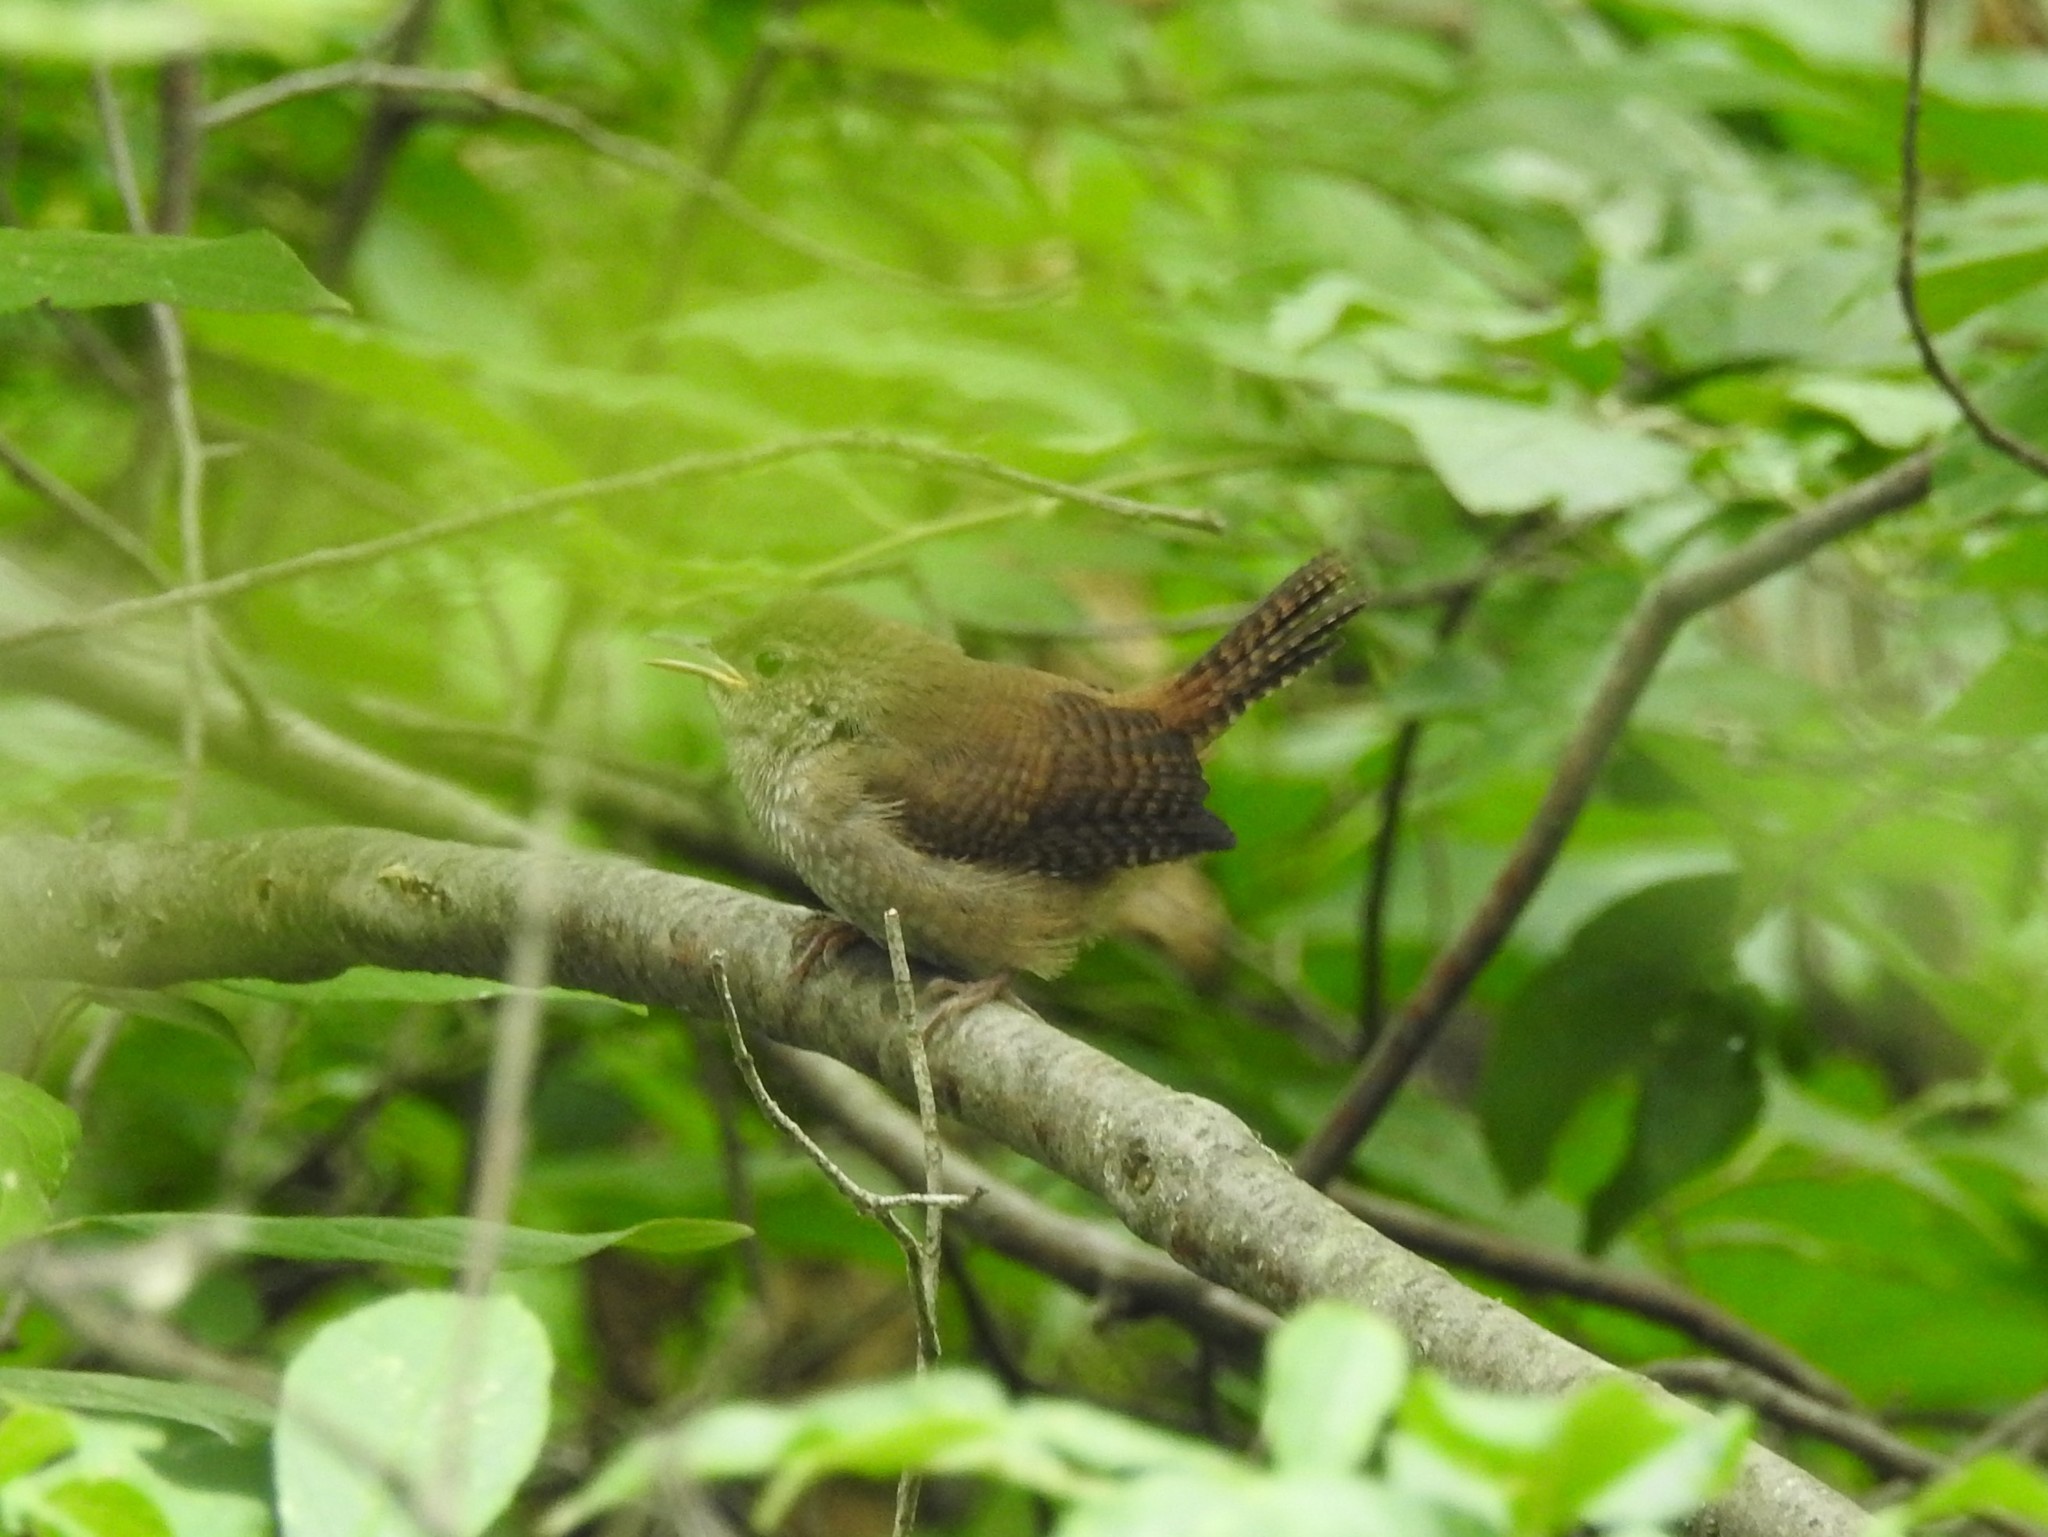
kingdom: Animalia
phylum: Chordata
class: Aves
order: Passeriformes
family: Troglodytidae
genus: Troglodytes
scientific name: Troglodytes aedon
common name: House wren
